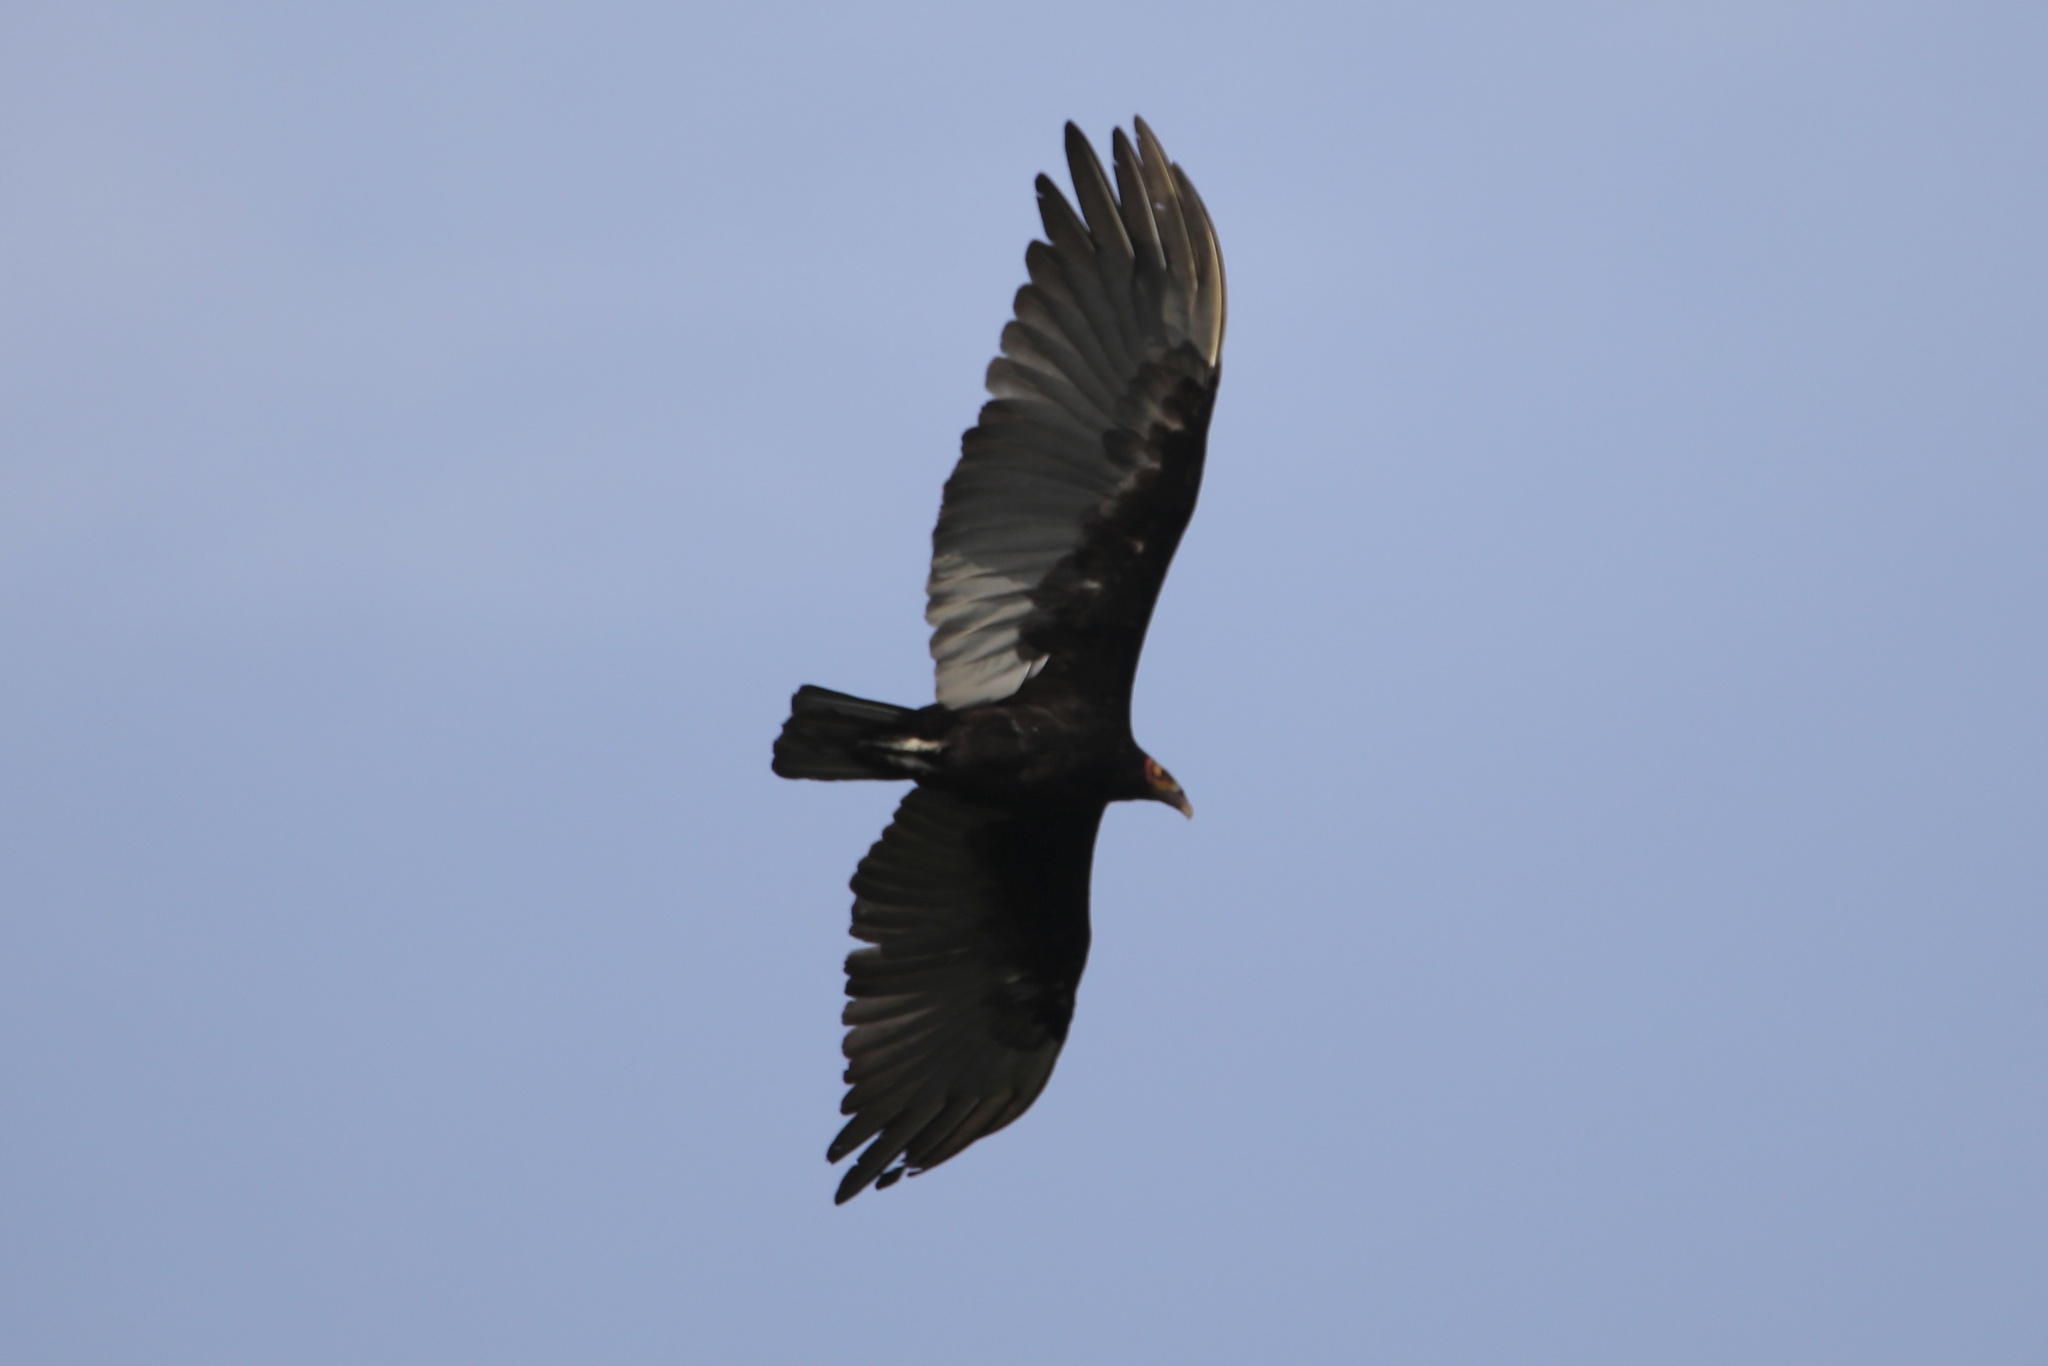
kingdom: Animalia
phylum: Chordata
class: Aves
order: Accipitriformes
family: Cathartidae
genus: Cathartes
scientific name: Cathartes burrovianus
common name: Lesser yellow-headed vulture
